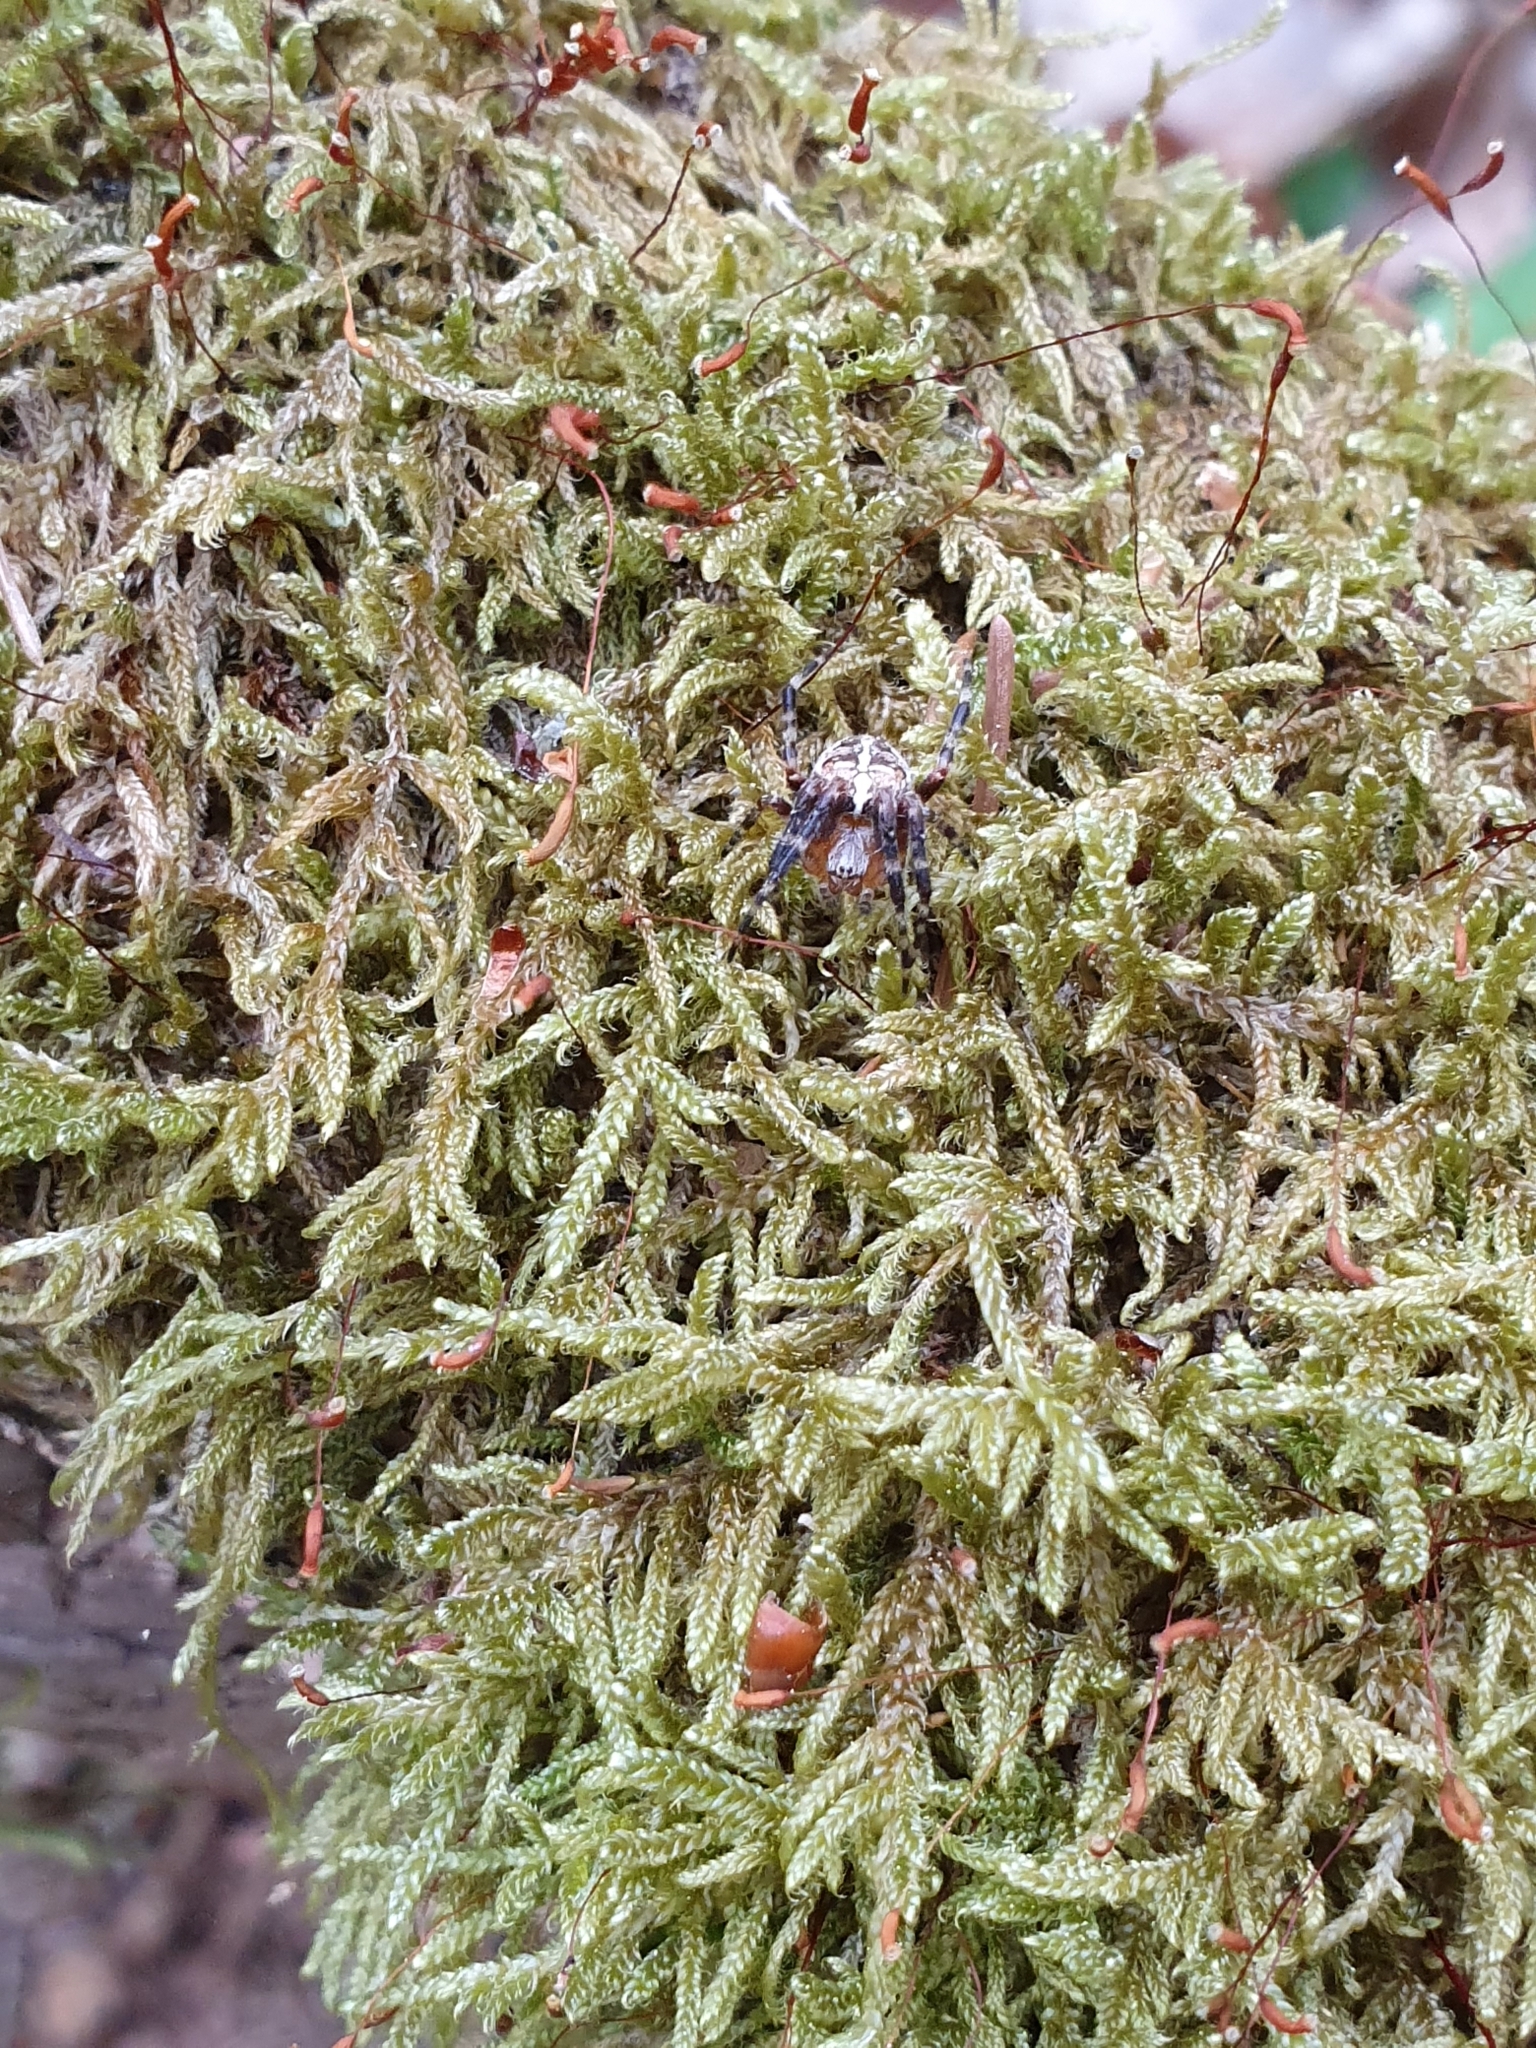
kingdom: Animalia
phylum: Arthropoda
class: Arachnida
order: Araneae
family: Araneidae
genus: Araneus
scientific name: Araneus diadematus
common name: Cross orbweaver
